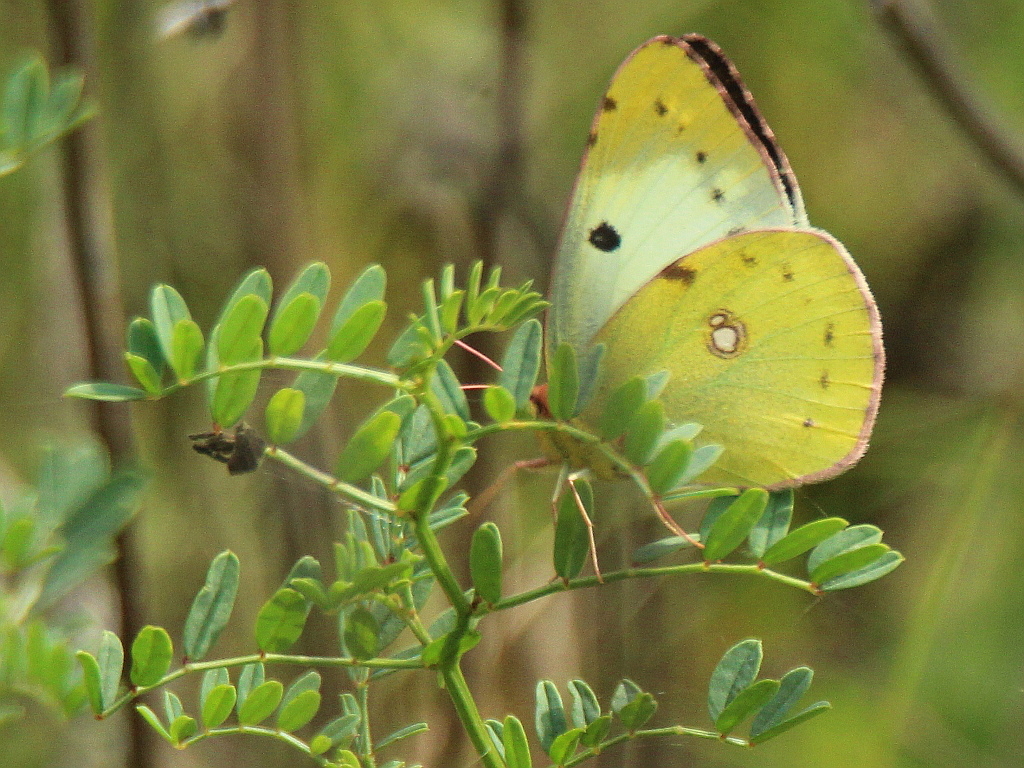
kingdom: Animalia
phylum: Arthropoda
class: Insecta
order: Lepidoptera
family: Pieridae
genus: Colias
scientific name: Colias hyale
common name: Pale clouded yellow
